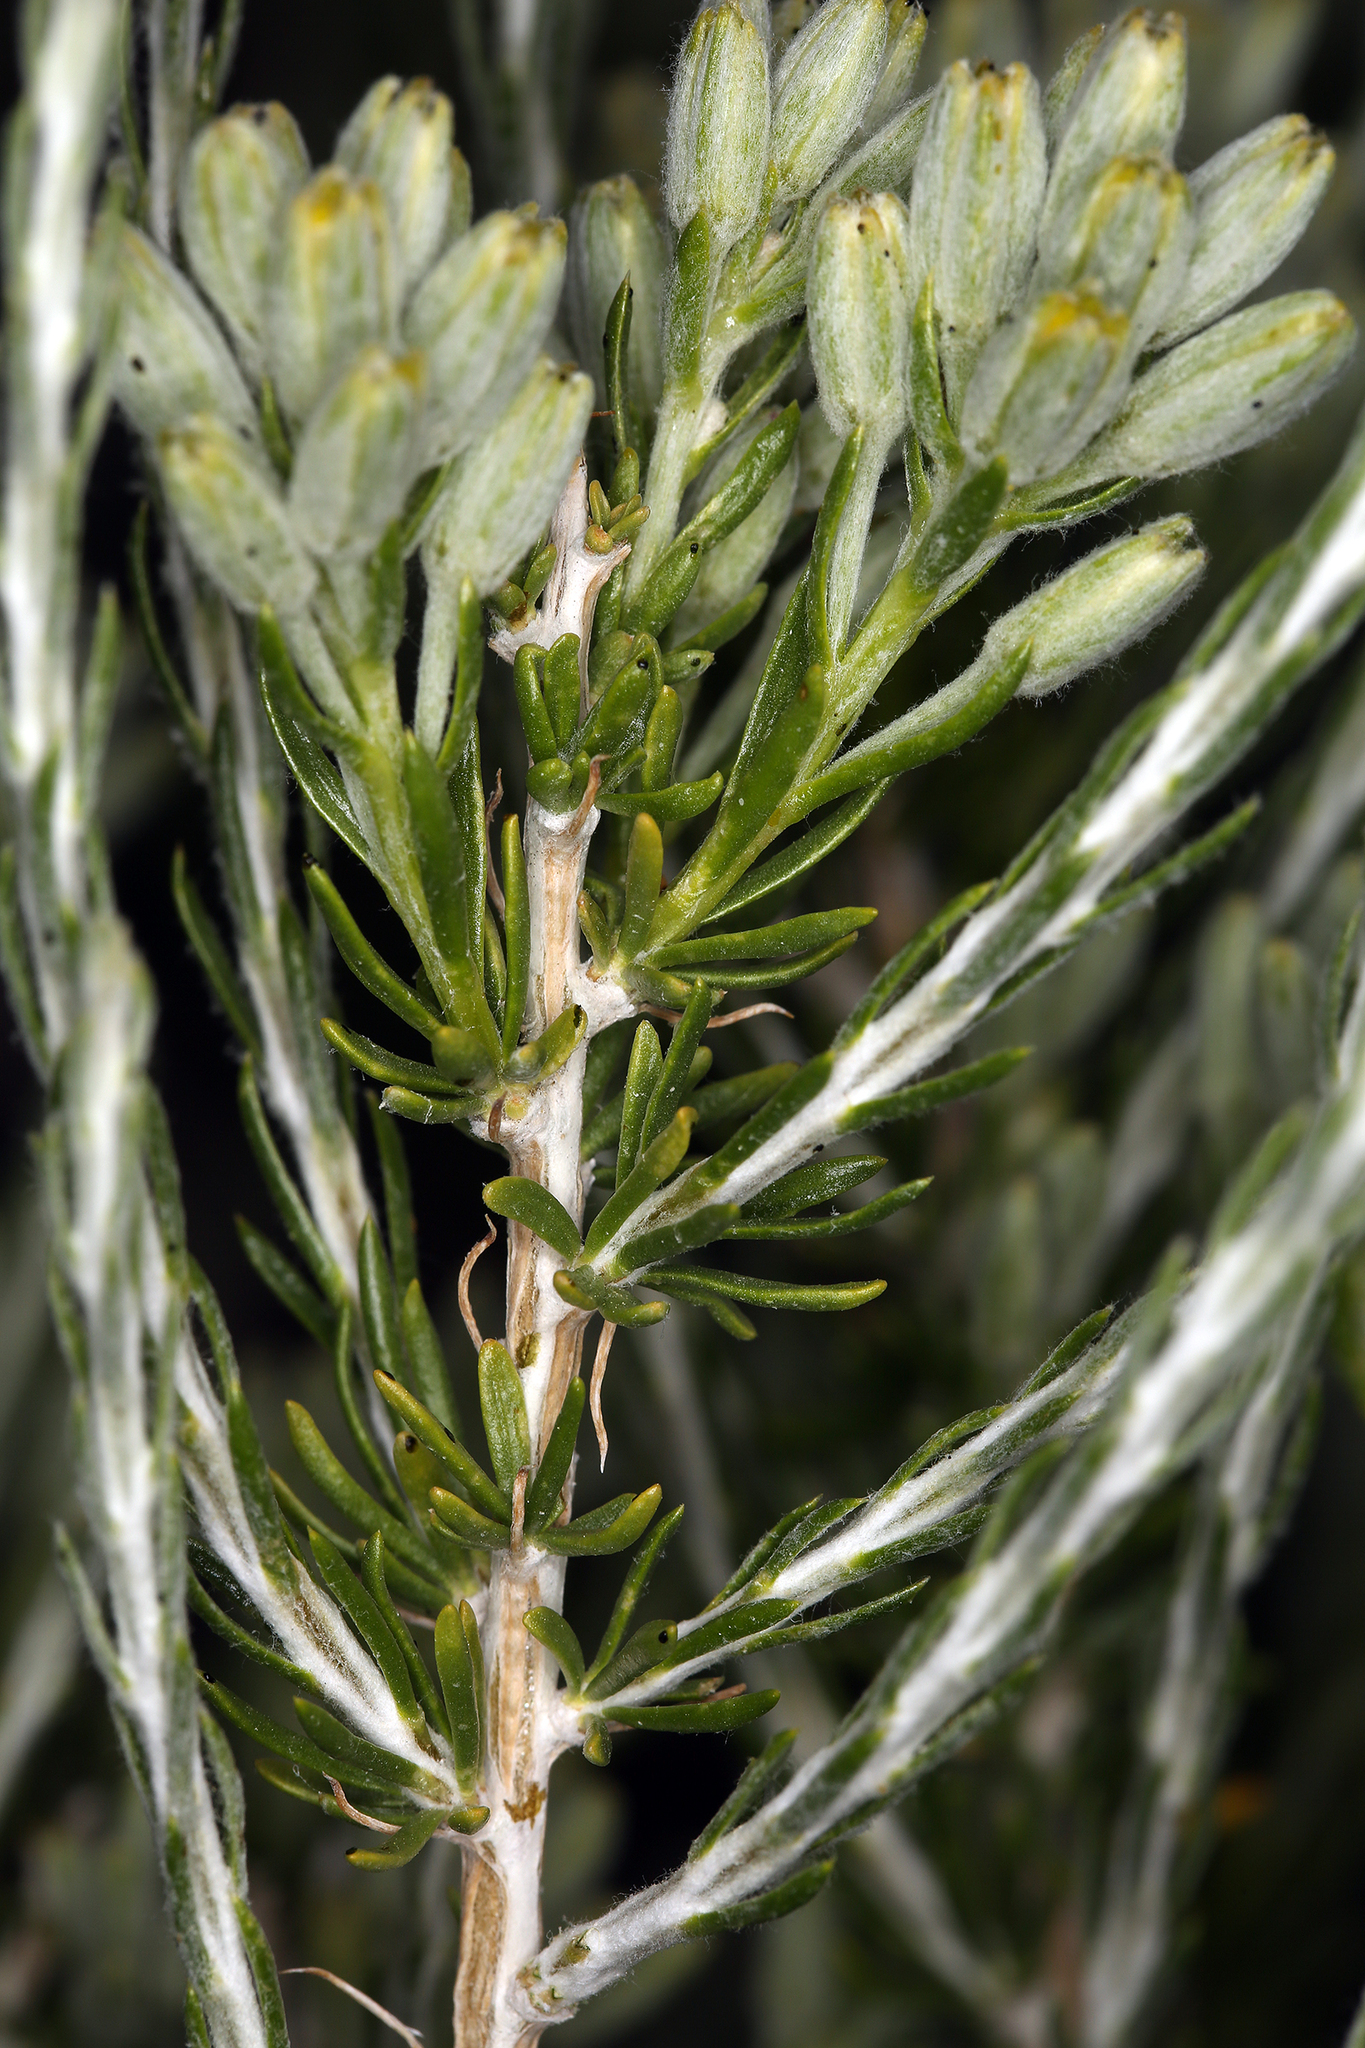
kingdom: Plantae
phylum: Tracheophyta
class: Magnoliopsida
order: Asterales
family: Asteraceae
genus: Tetradymia
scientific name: Tetradymia glabrata
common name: Smooth tetradymia
